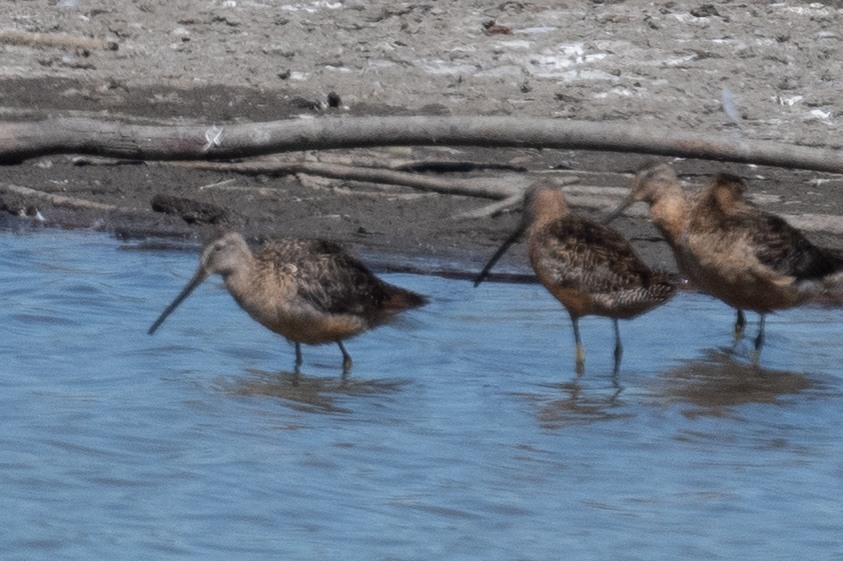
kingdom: Animalia
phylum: Chordata
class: Aves
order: Charadriiformes
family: Scolopacidae
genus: Limnodromus
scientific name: Limnodromus scolopaceus
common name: Long-billed dowitcher
